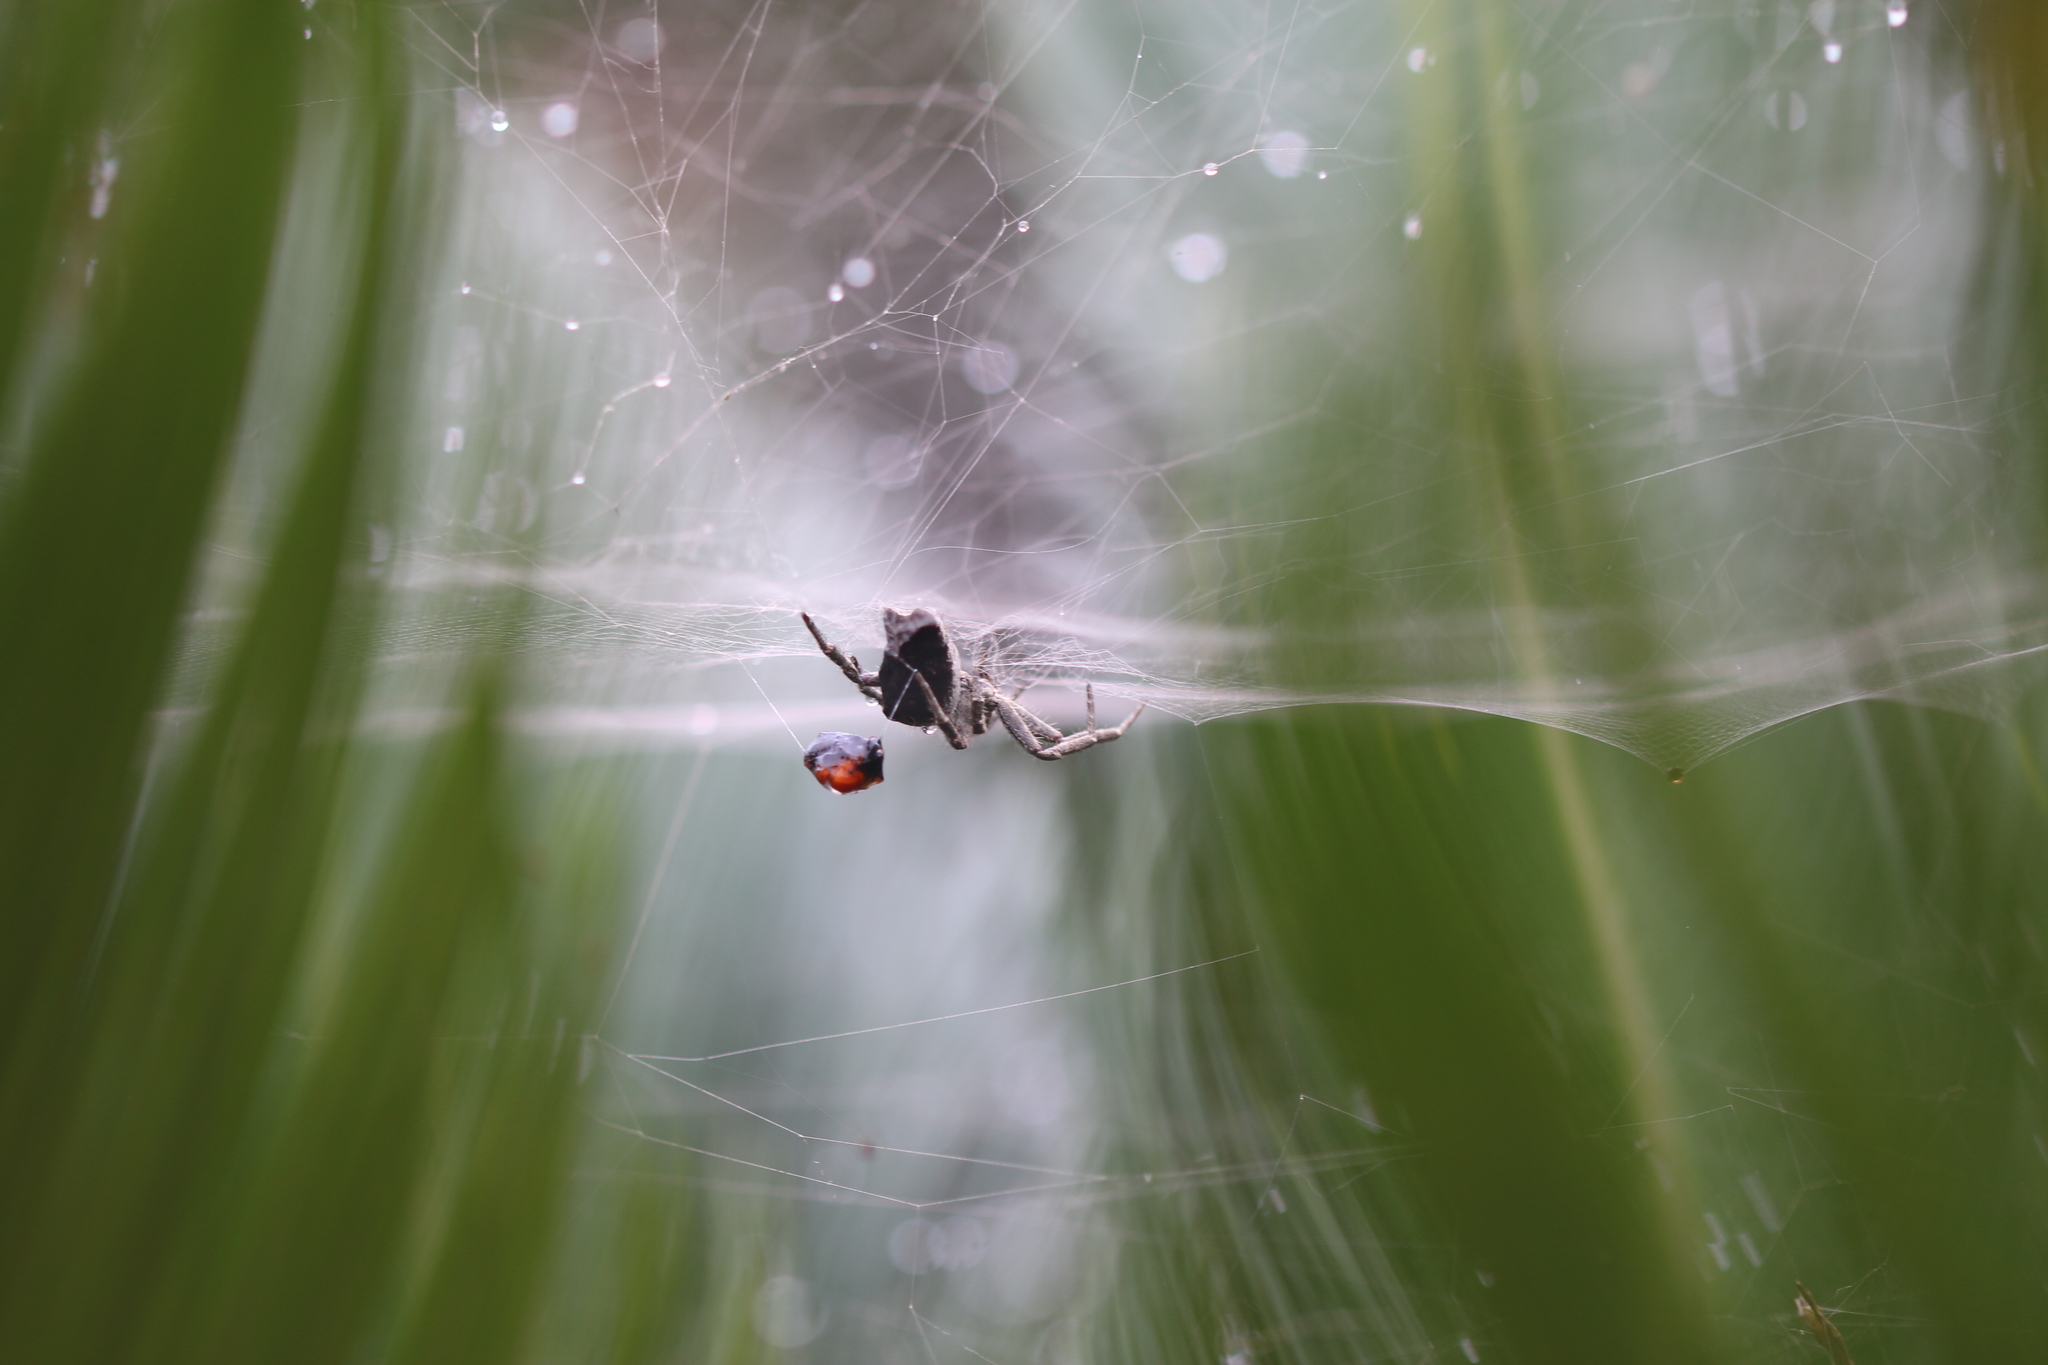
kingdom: Animalia
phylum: Arthropoda
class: Arachnida
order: Araneae
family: Araneidae
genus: Cyrtophora
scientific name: Cyrtophora citricola
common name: Orb weavers
